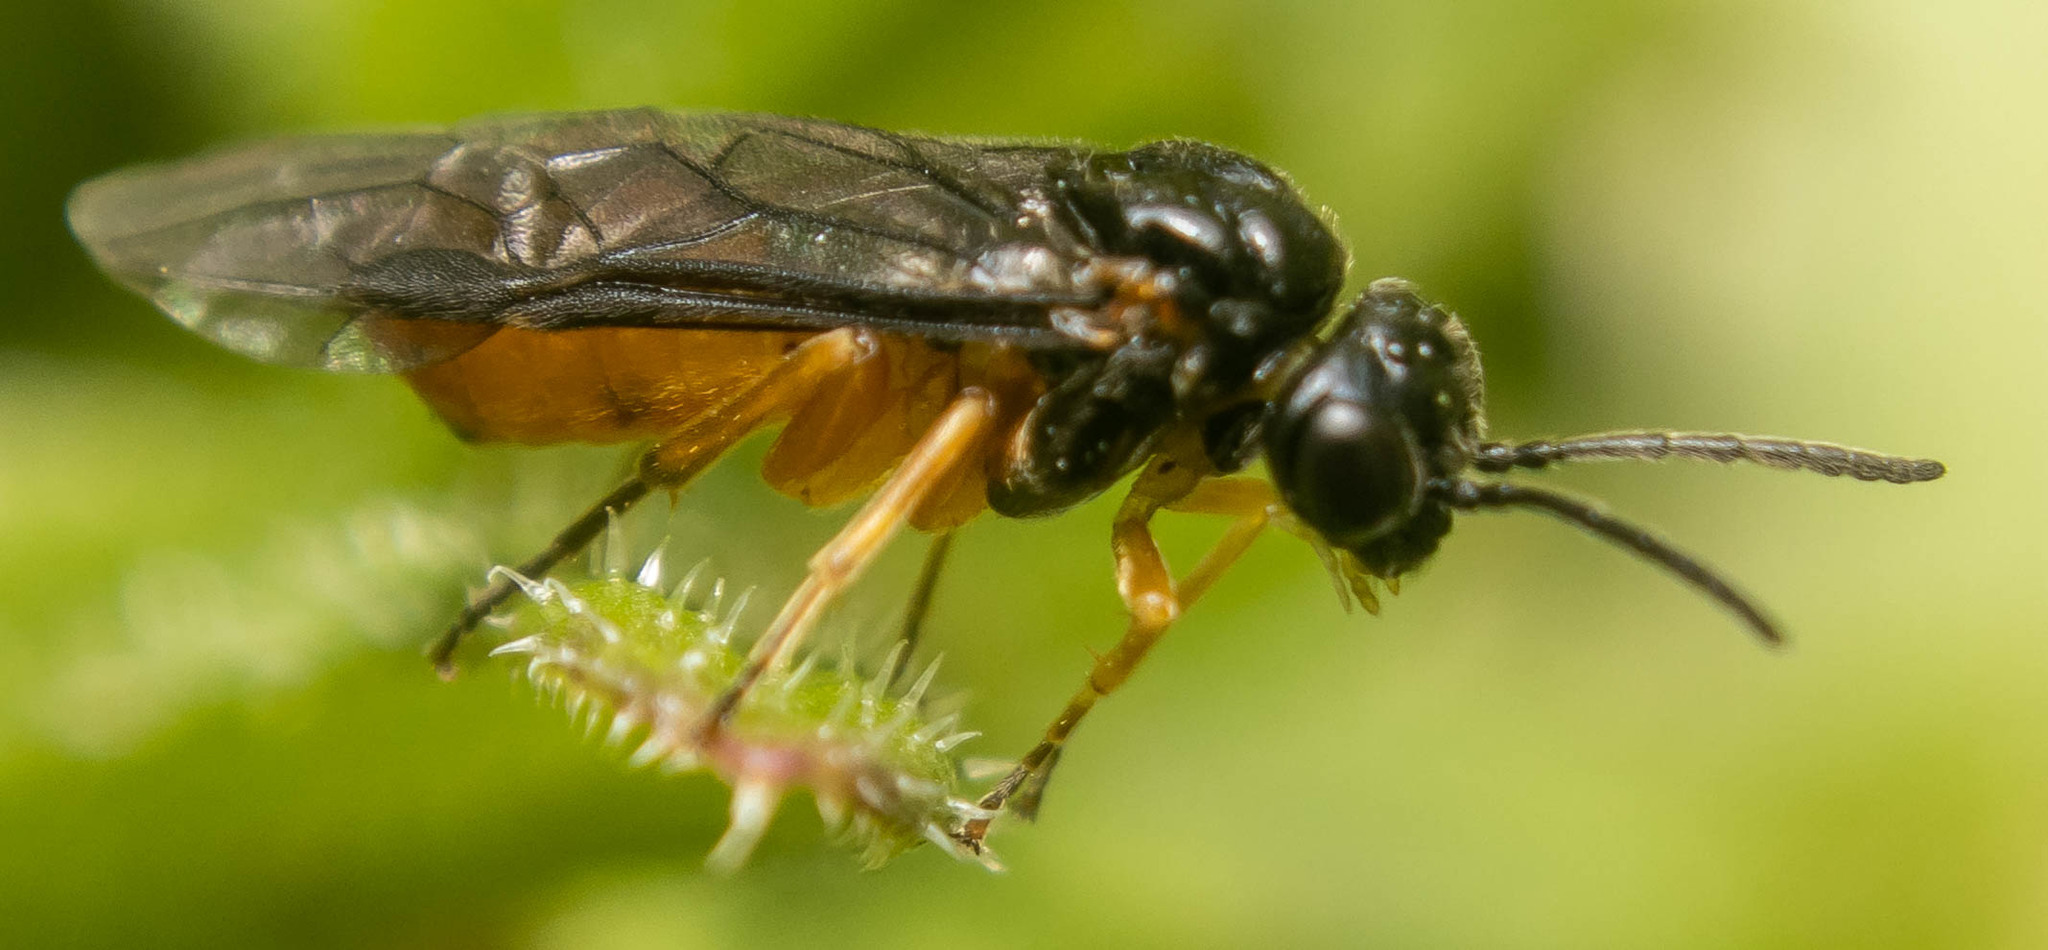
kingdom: Animalia
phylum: Arthropoda
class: Insecta
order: Hymenoptera
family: Tenthredinidae
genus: Halidamia
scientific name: Halidamia affinis
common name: Wasp
